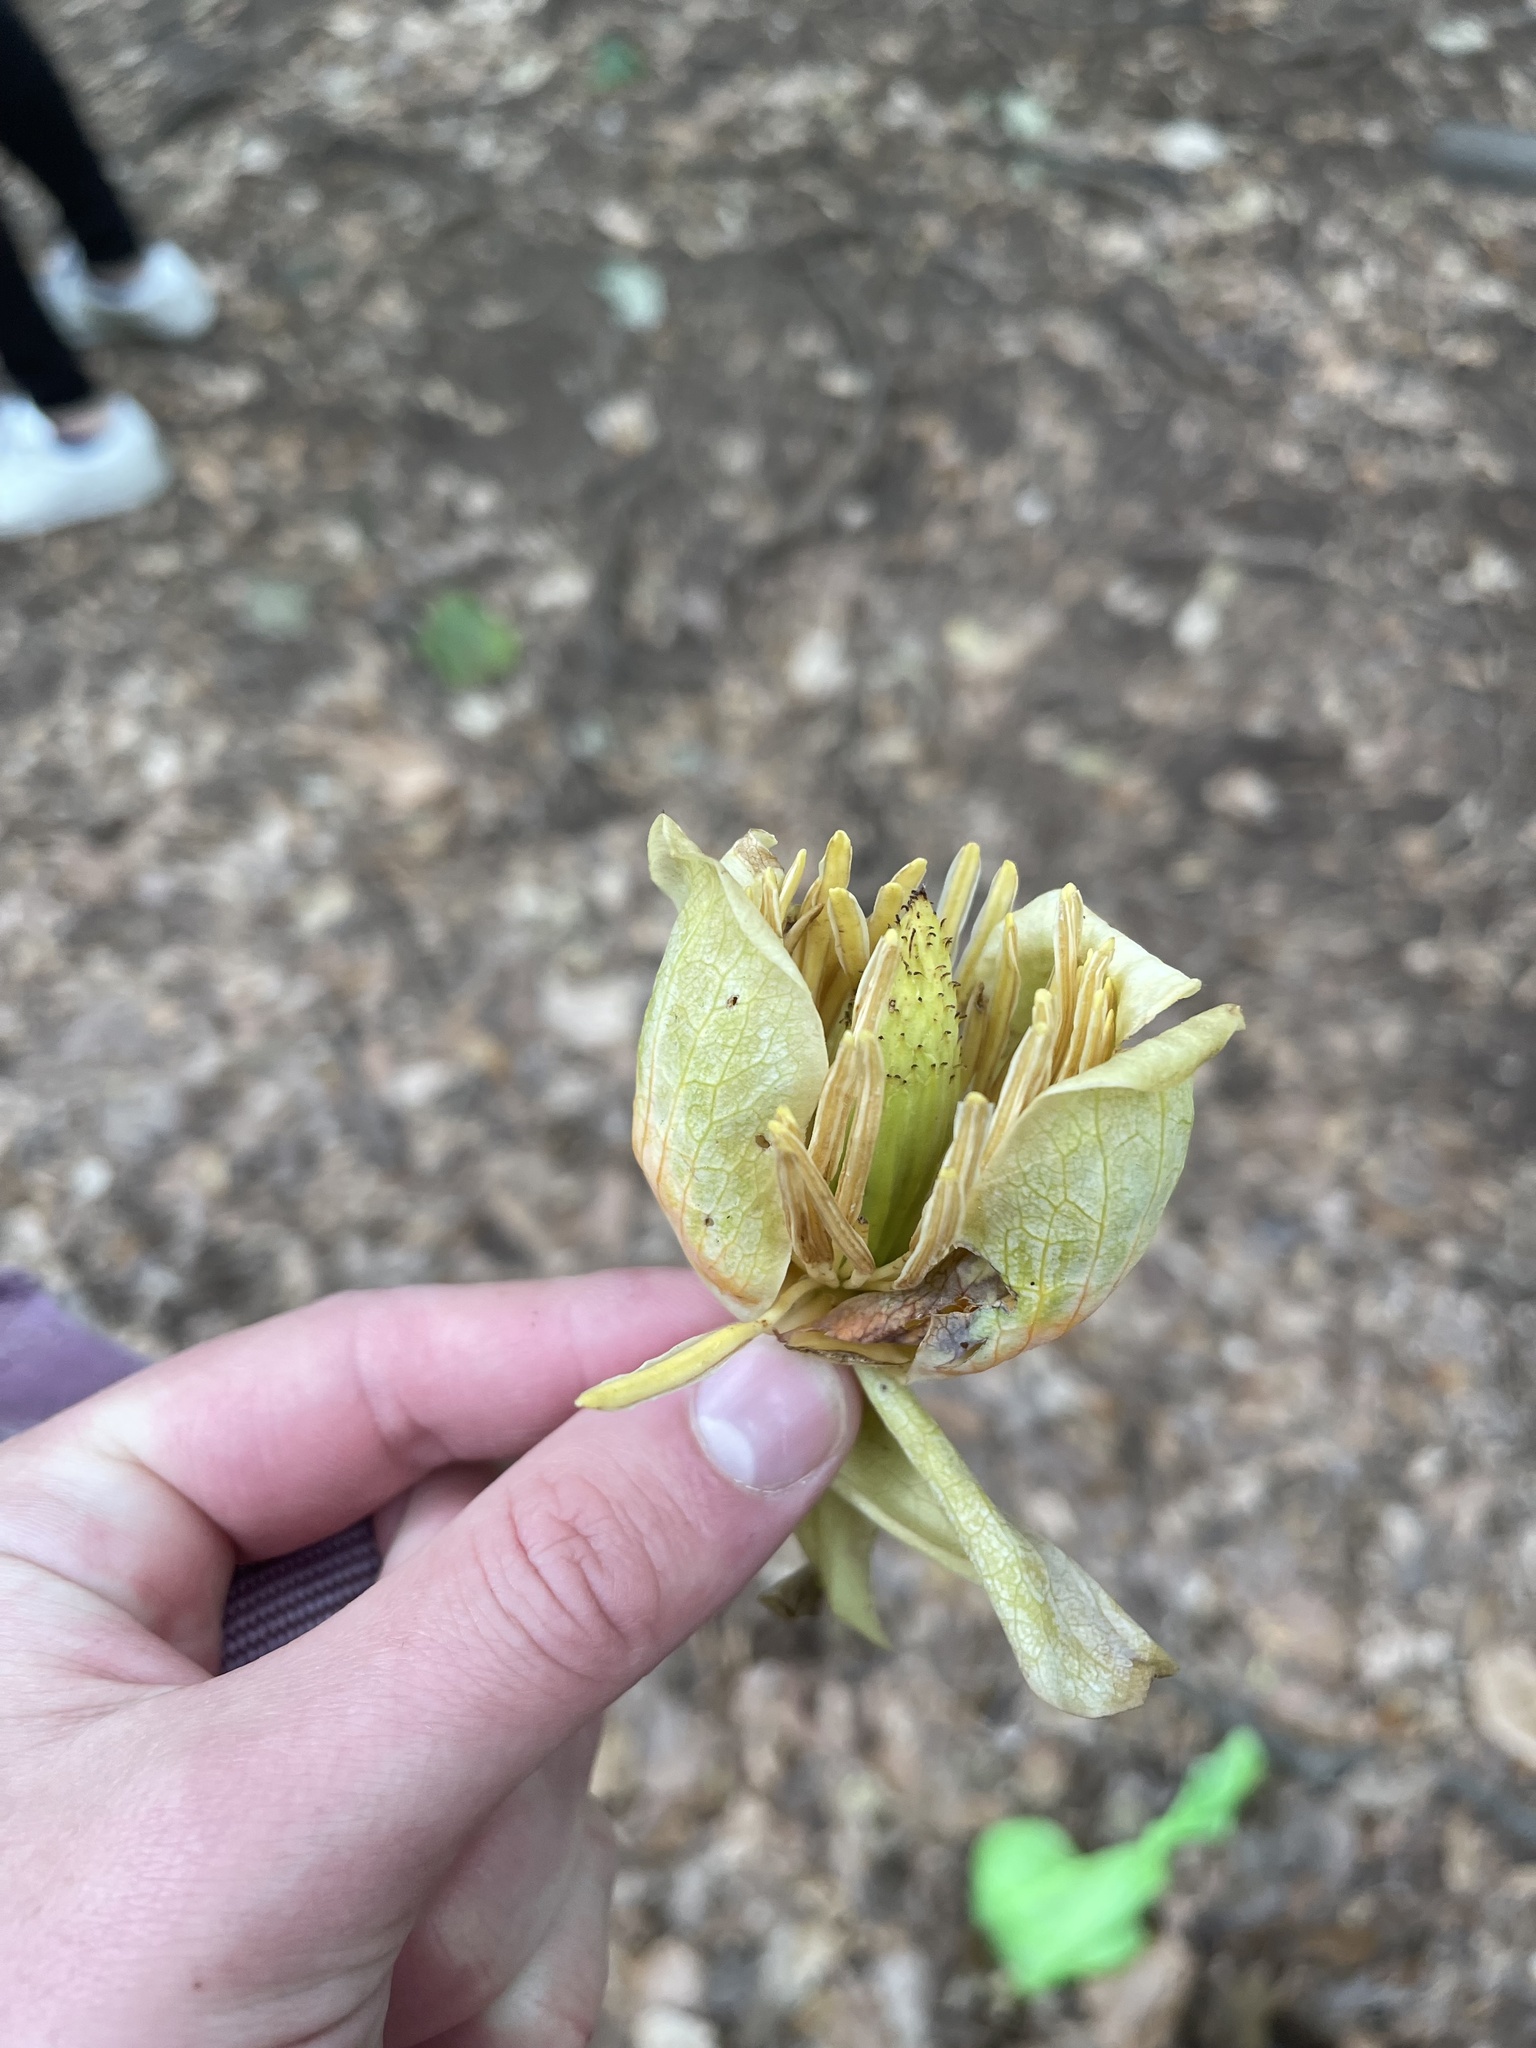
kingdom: Plantae
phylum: Tracheophyta
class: Magnoliopsida
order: Magnoliales
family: Magnoliaceae
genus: Liriodendron
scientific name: Liriodendron tulipifera
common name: Tulip tree
